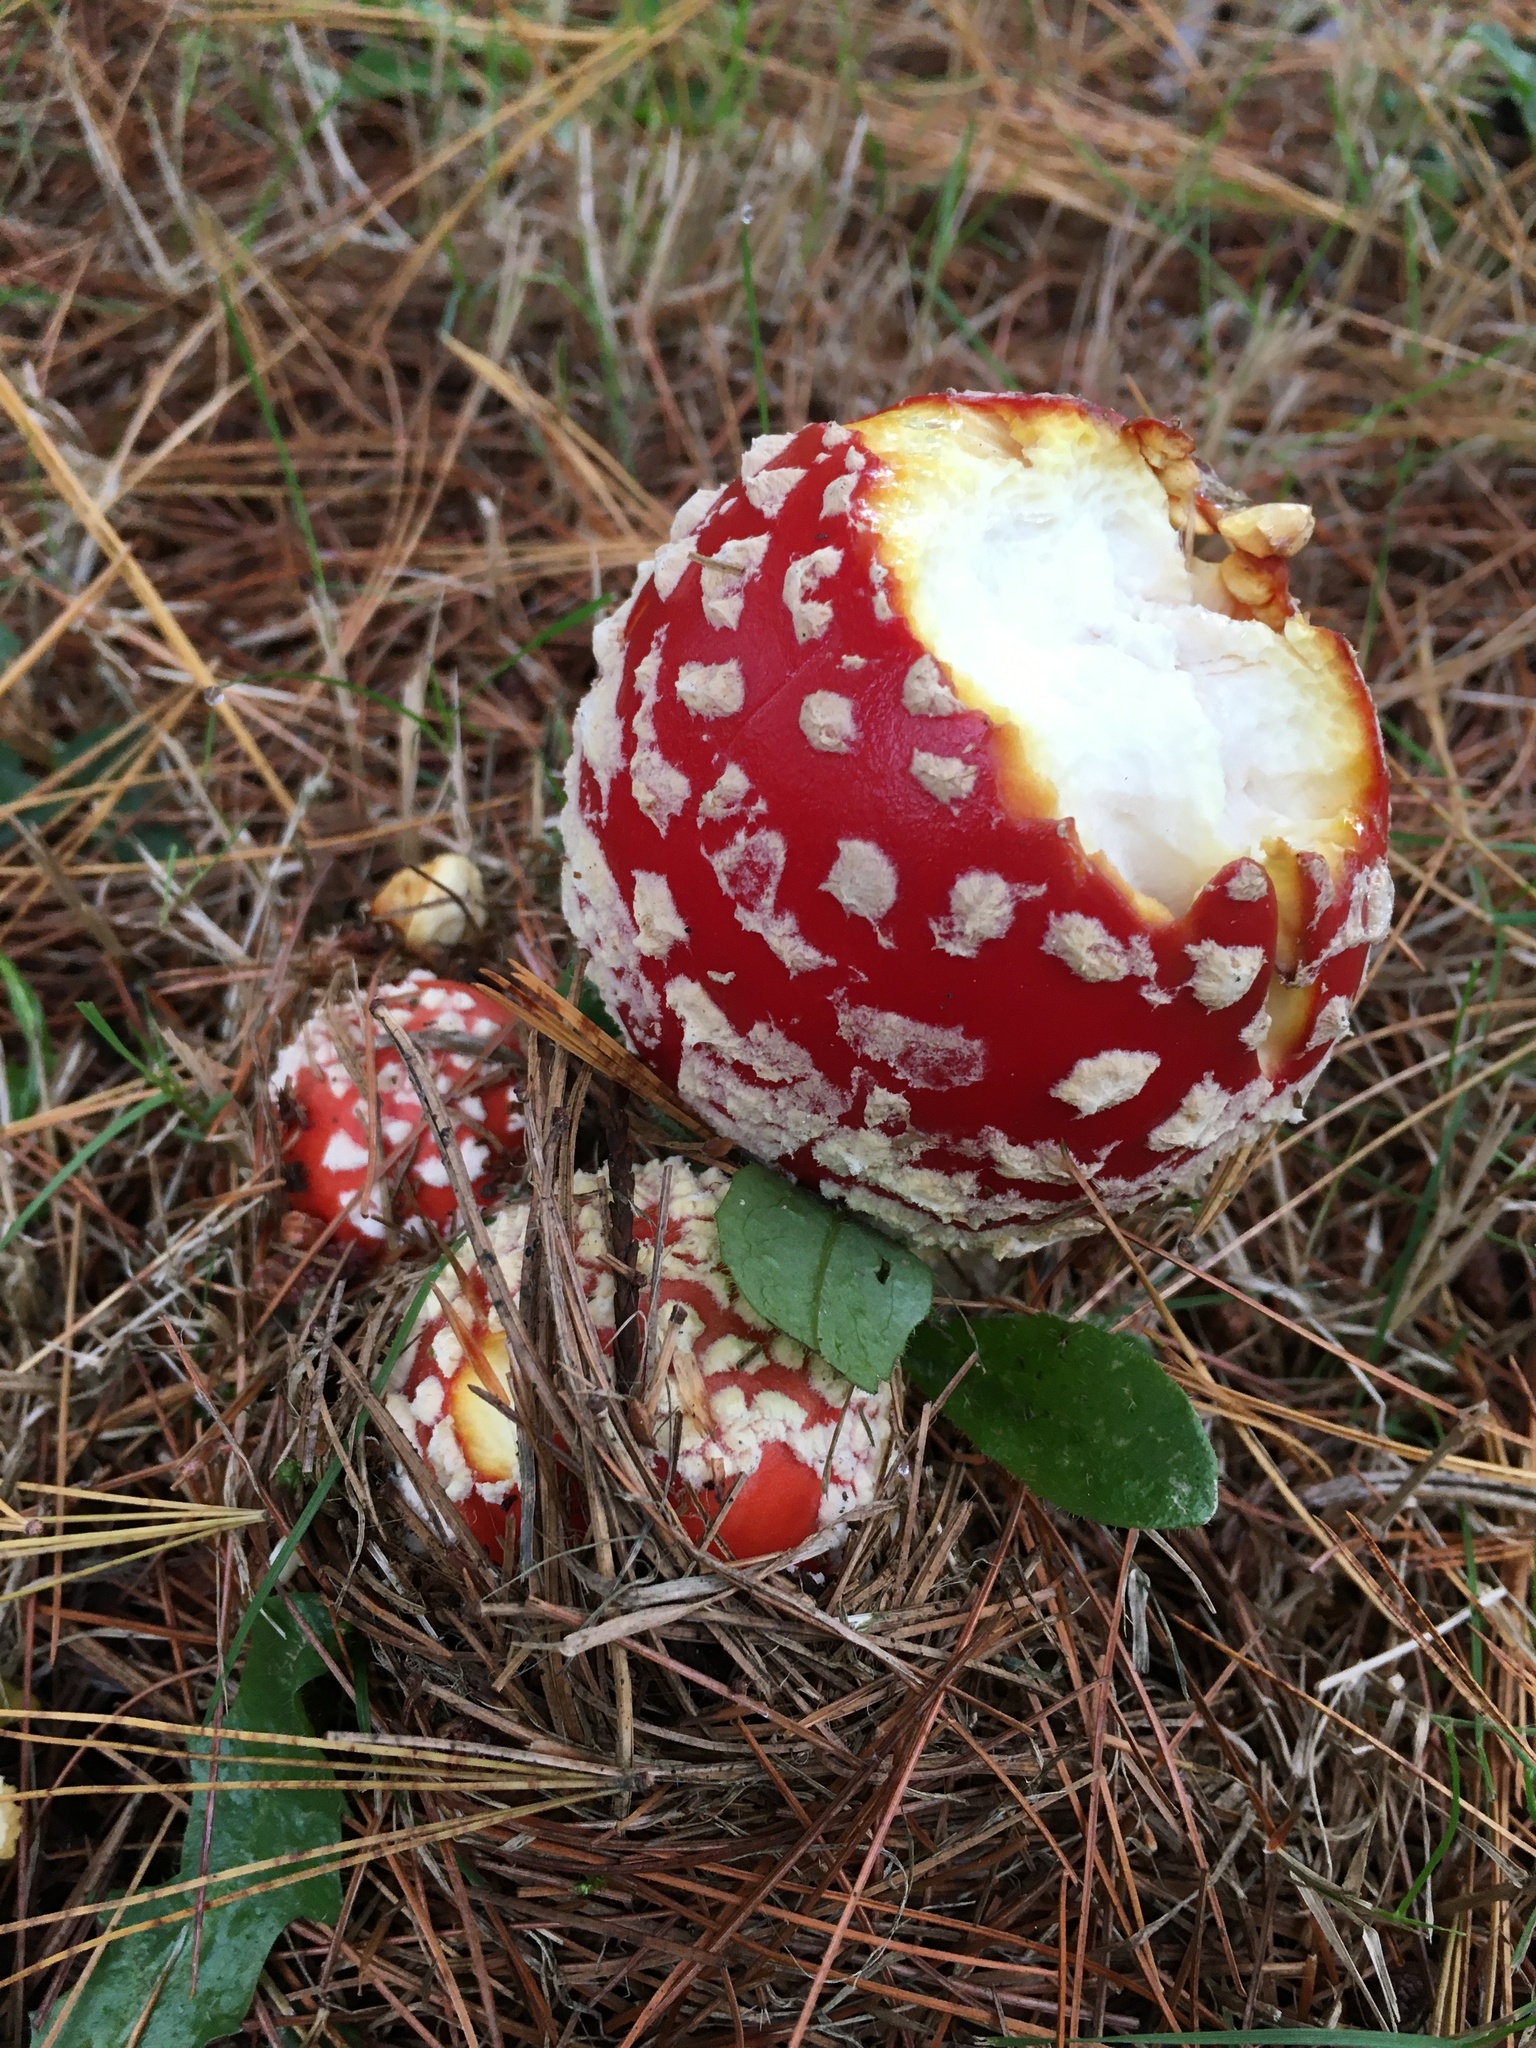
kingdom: Fungi
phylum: Basidiomycota
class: Agaricomycetes
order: Agaricales
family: Amanitaceae
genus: Amanita
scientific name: Amanita muscaria
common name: Fly agaric
